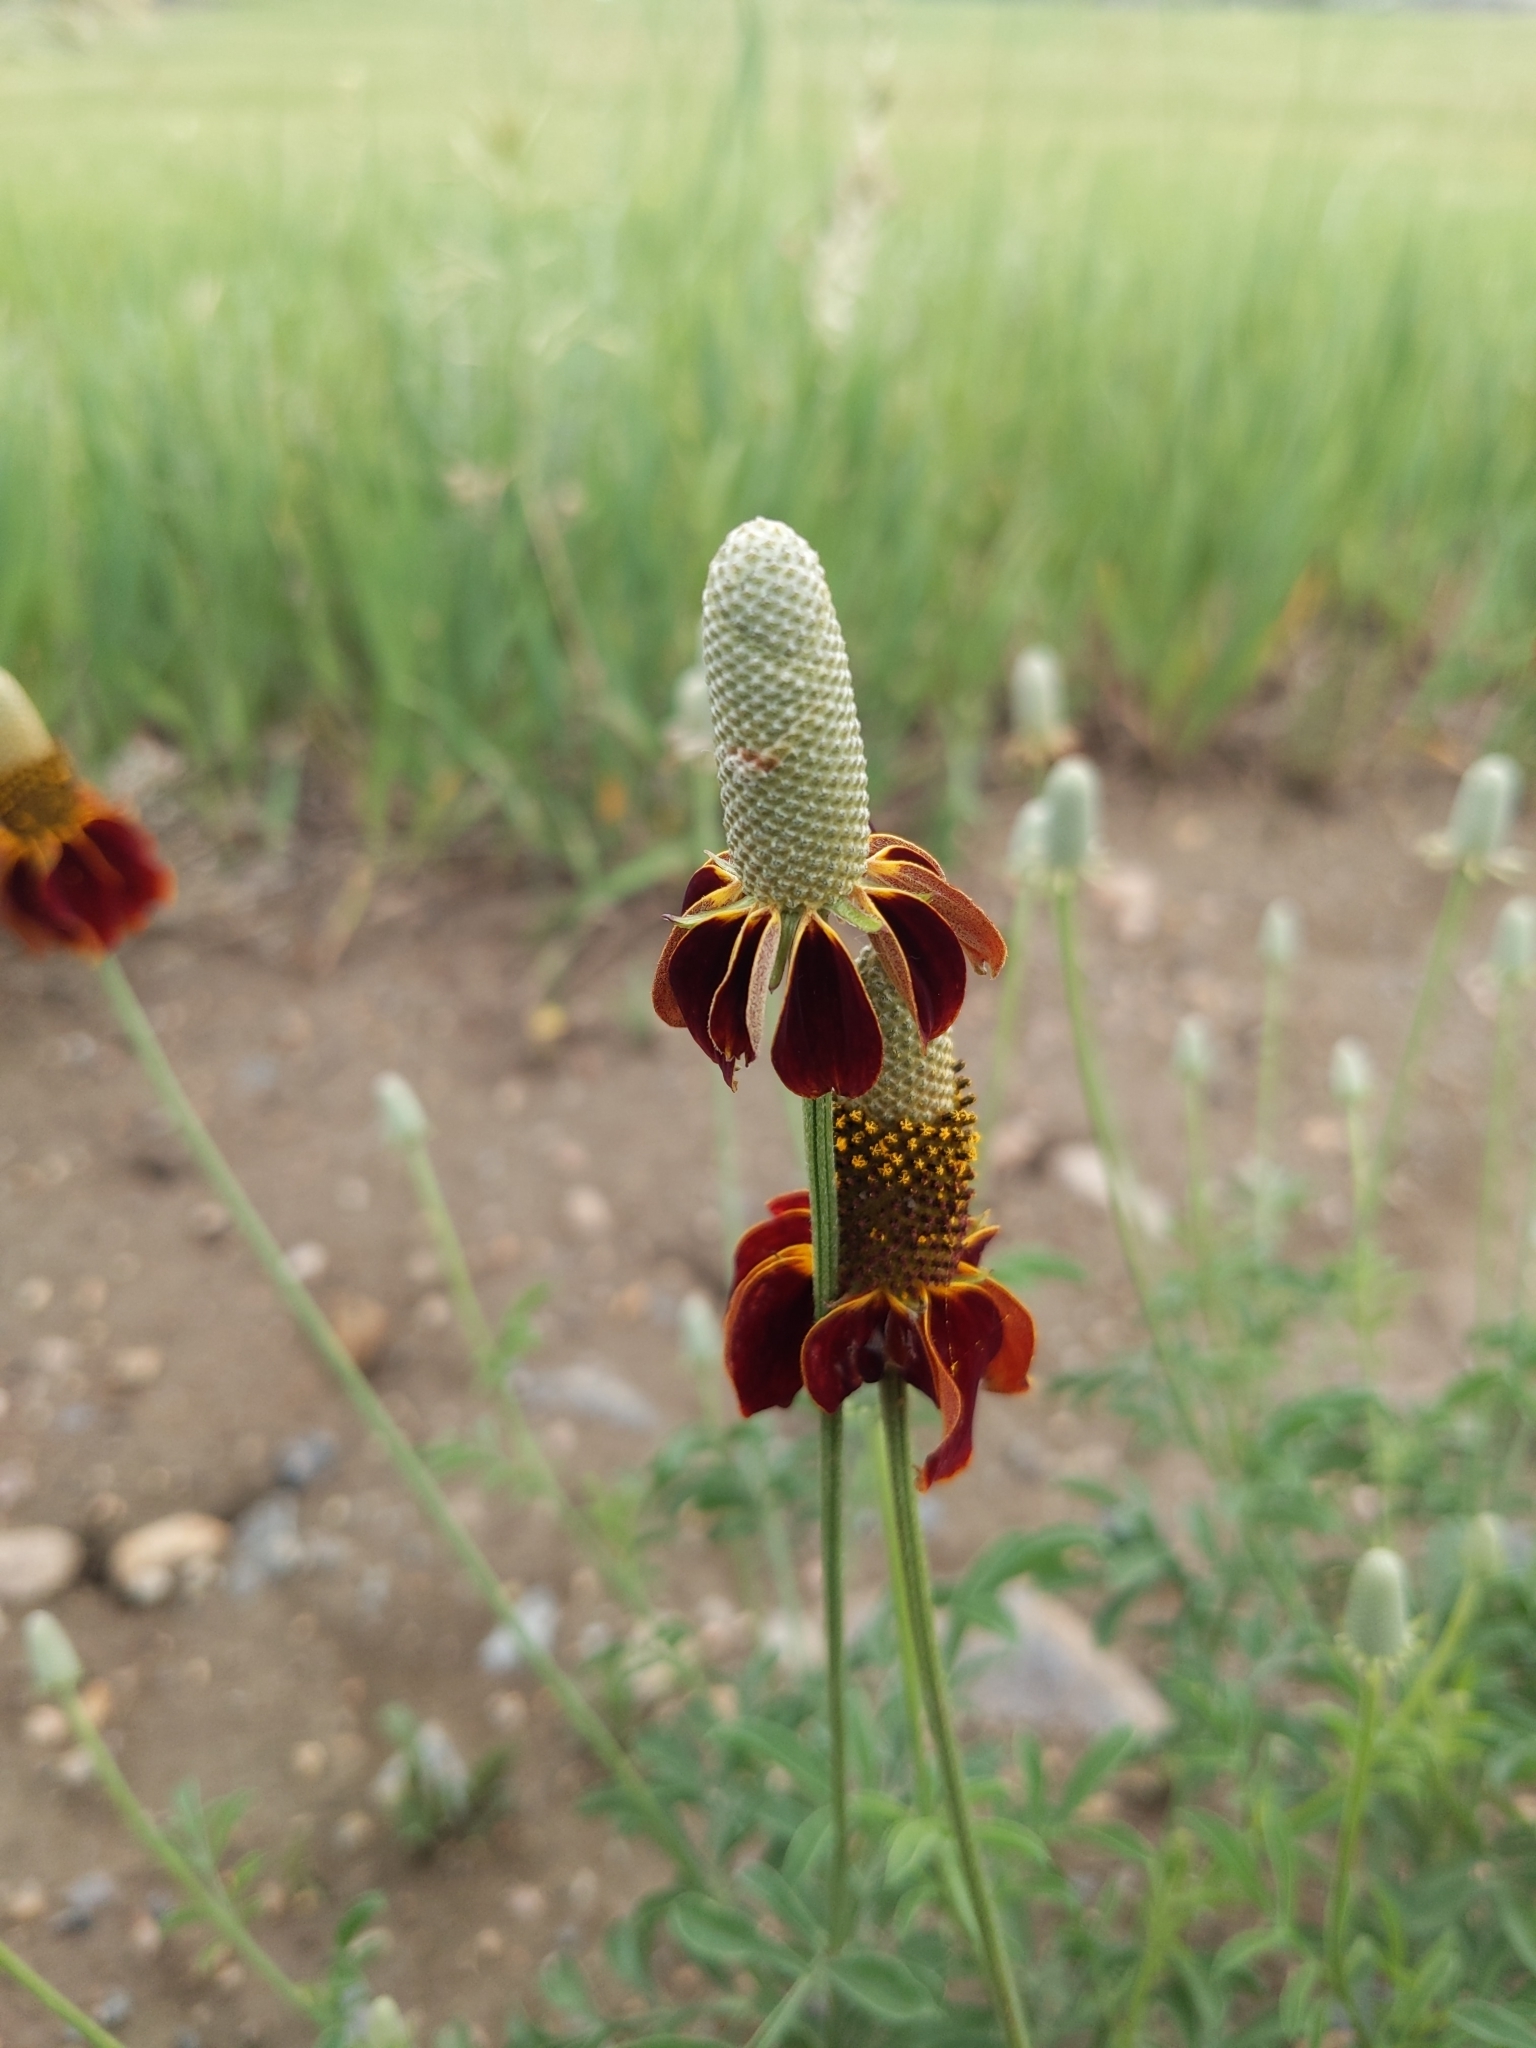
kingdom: Plantae
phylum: Tracheophyta
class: Magnoliopsida
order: Asterales
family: Asteraceae
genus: Ratibida
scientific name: Ratibida columnifera
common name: Prairie coneflower
